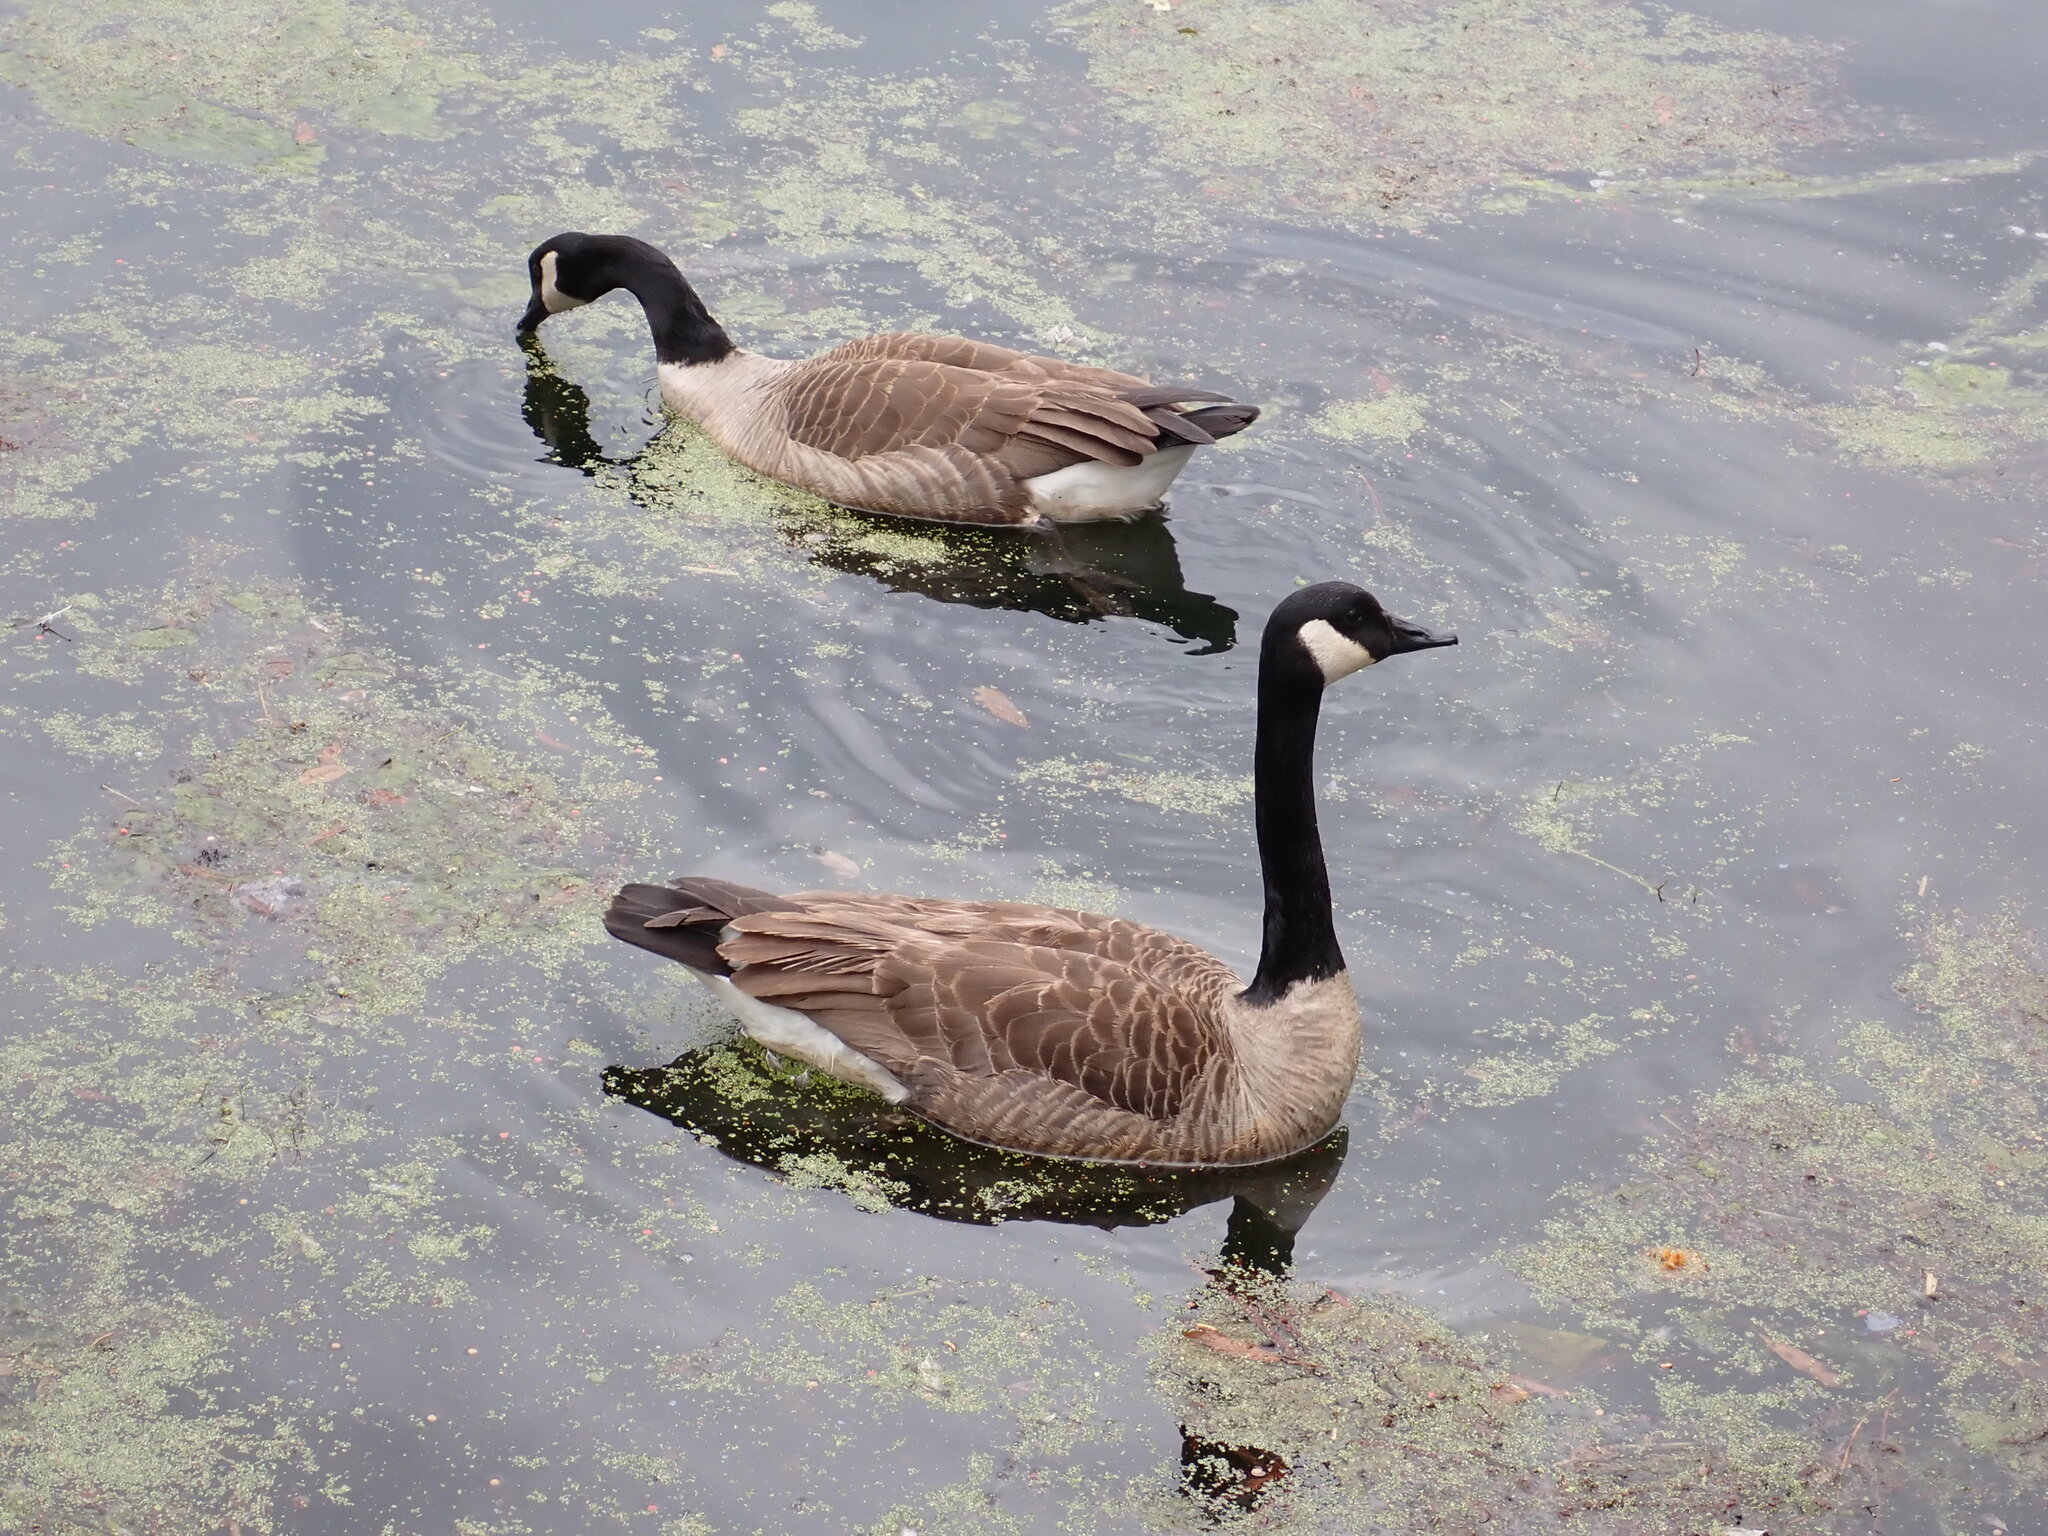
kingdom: Animalia
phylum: Chordata
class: Aves
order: Anseriformes
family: Anatidae
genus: Branta
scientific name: Branta canadensis
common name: Canada goose
